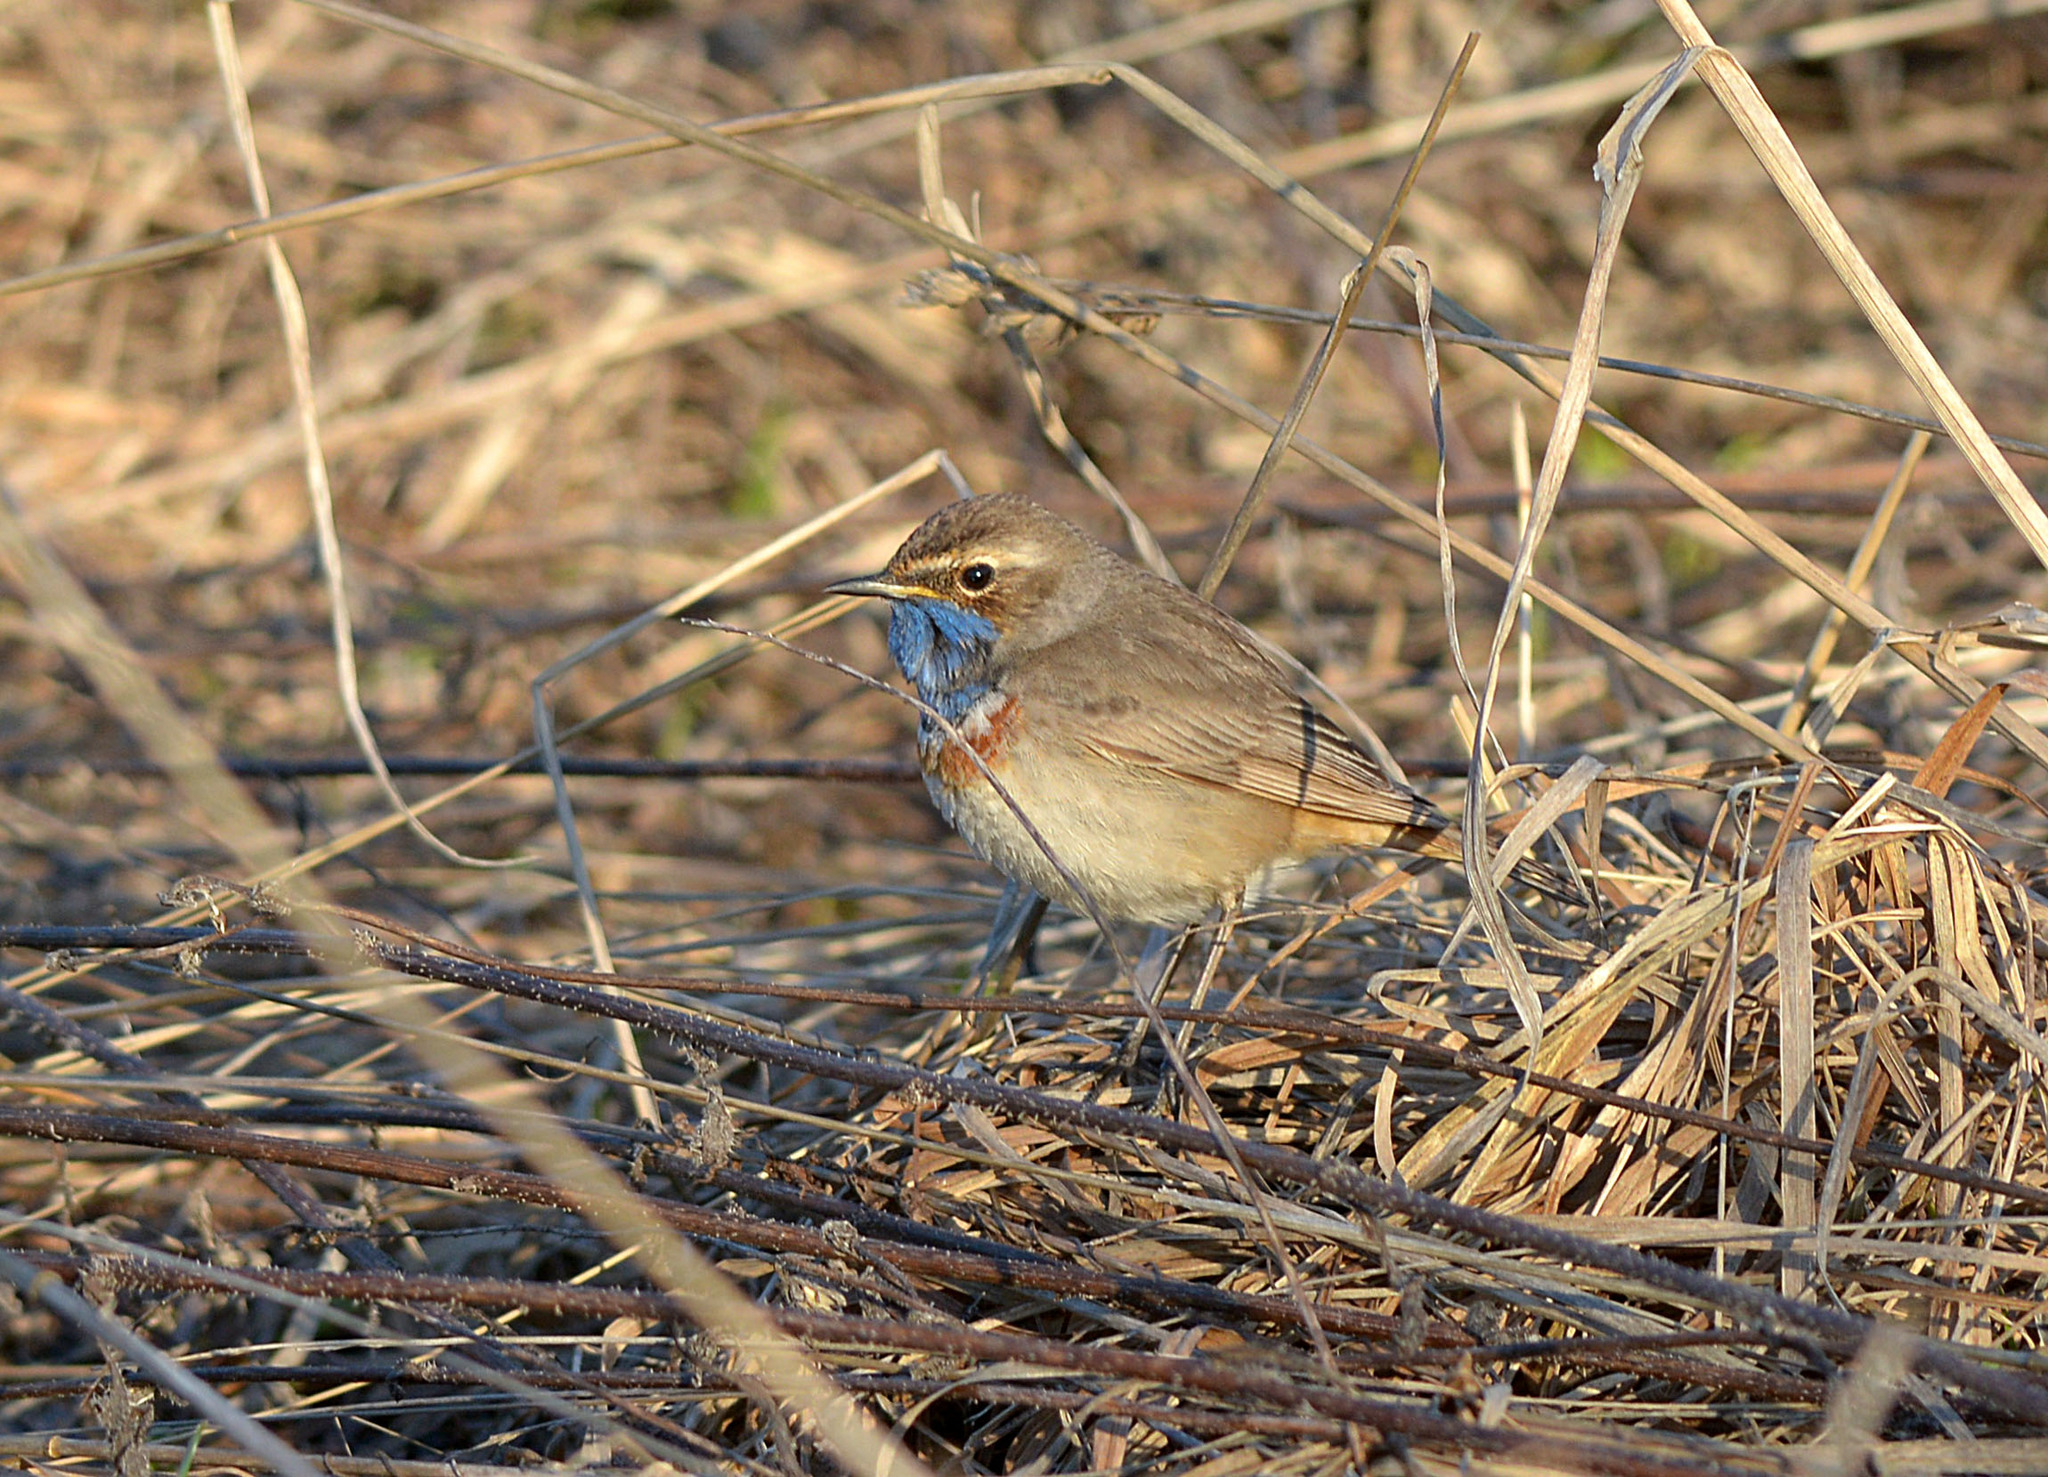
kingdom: Animalia
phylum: Chordata
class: Aves
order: Passeriformes
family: Muscicapidae
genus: Luscinia
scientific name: Luscinia svecica
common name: Bluethroat
